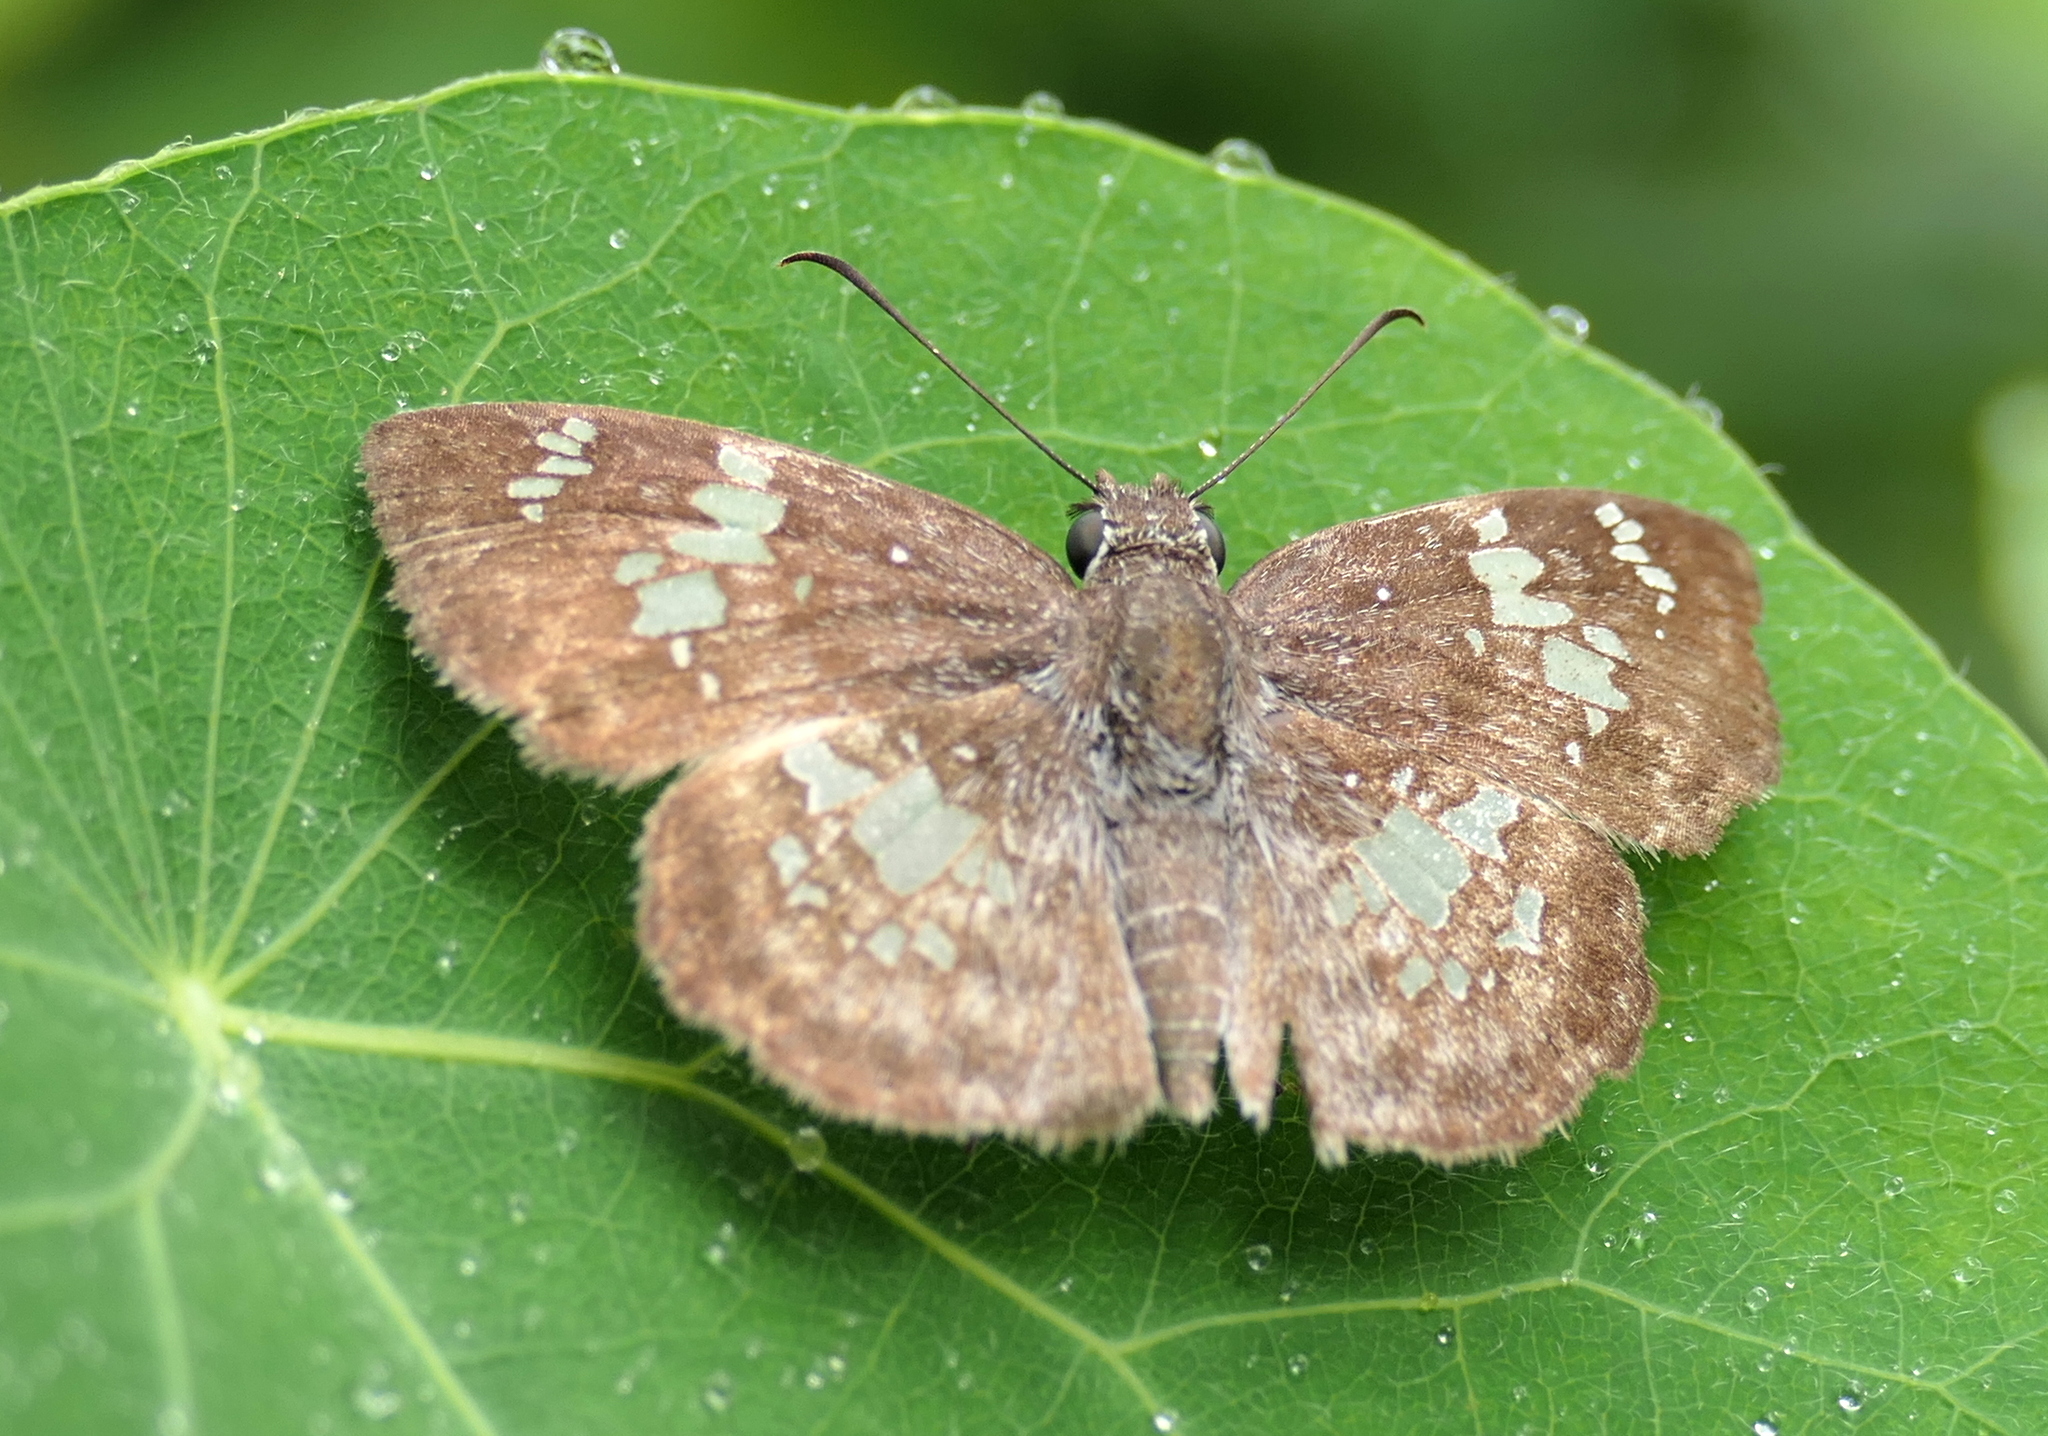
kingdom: Animalia
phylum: Arthropoda
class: Insecta
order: Lepidoptera
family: Hesperiidae
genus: Xenophanes
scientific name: Xenophanes tryxus
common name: Glassy-winged skipper
